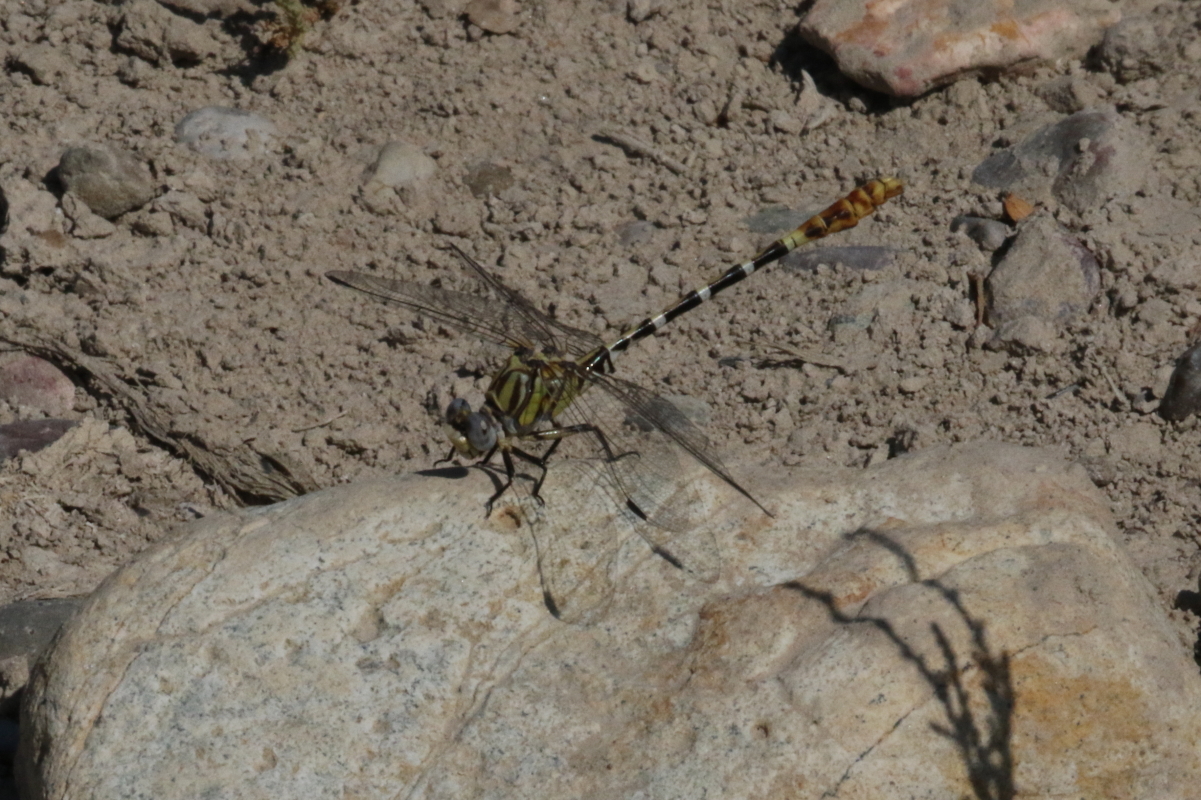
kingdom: Animalia
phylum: Arthropoda
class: Insecta
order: Odonata
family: Gomphidae
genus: Erpetogomphus
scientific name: Erpetogomphus designatus
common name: Eastern ringtail
